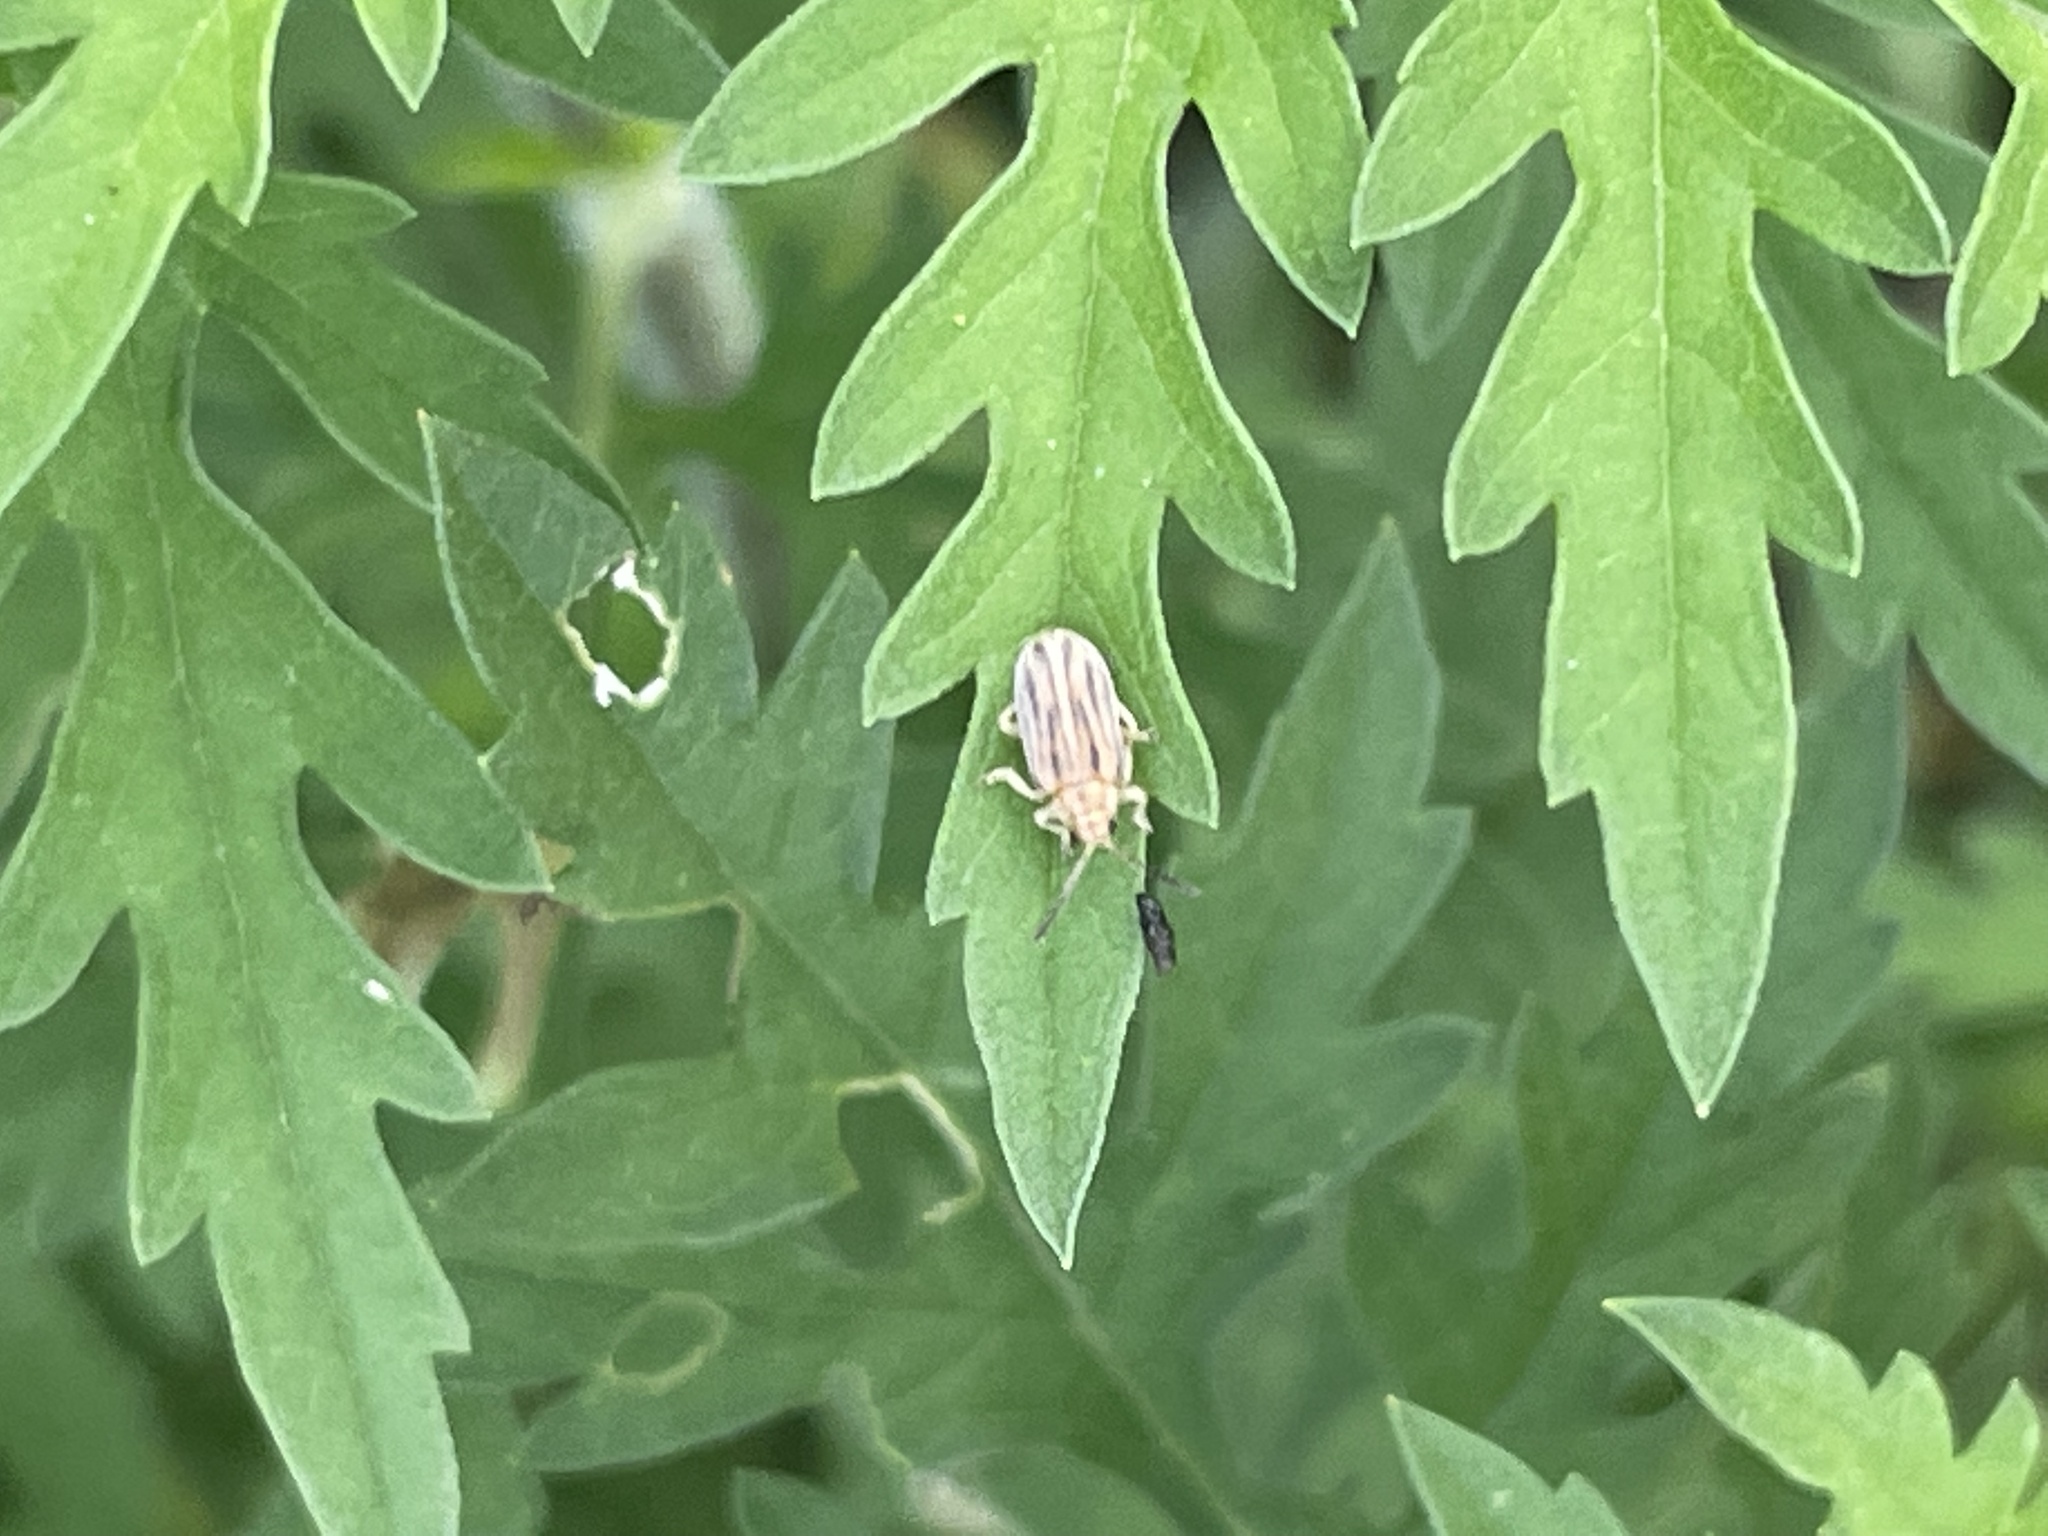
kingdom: Animalia
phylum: Arthropoda
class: Insecta
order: Coleoptera
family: Chrysomelidae
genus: Ophraella
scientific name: Ophraella communa
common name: Ragweed leaf beetle
